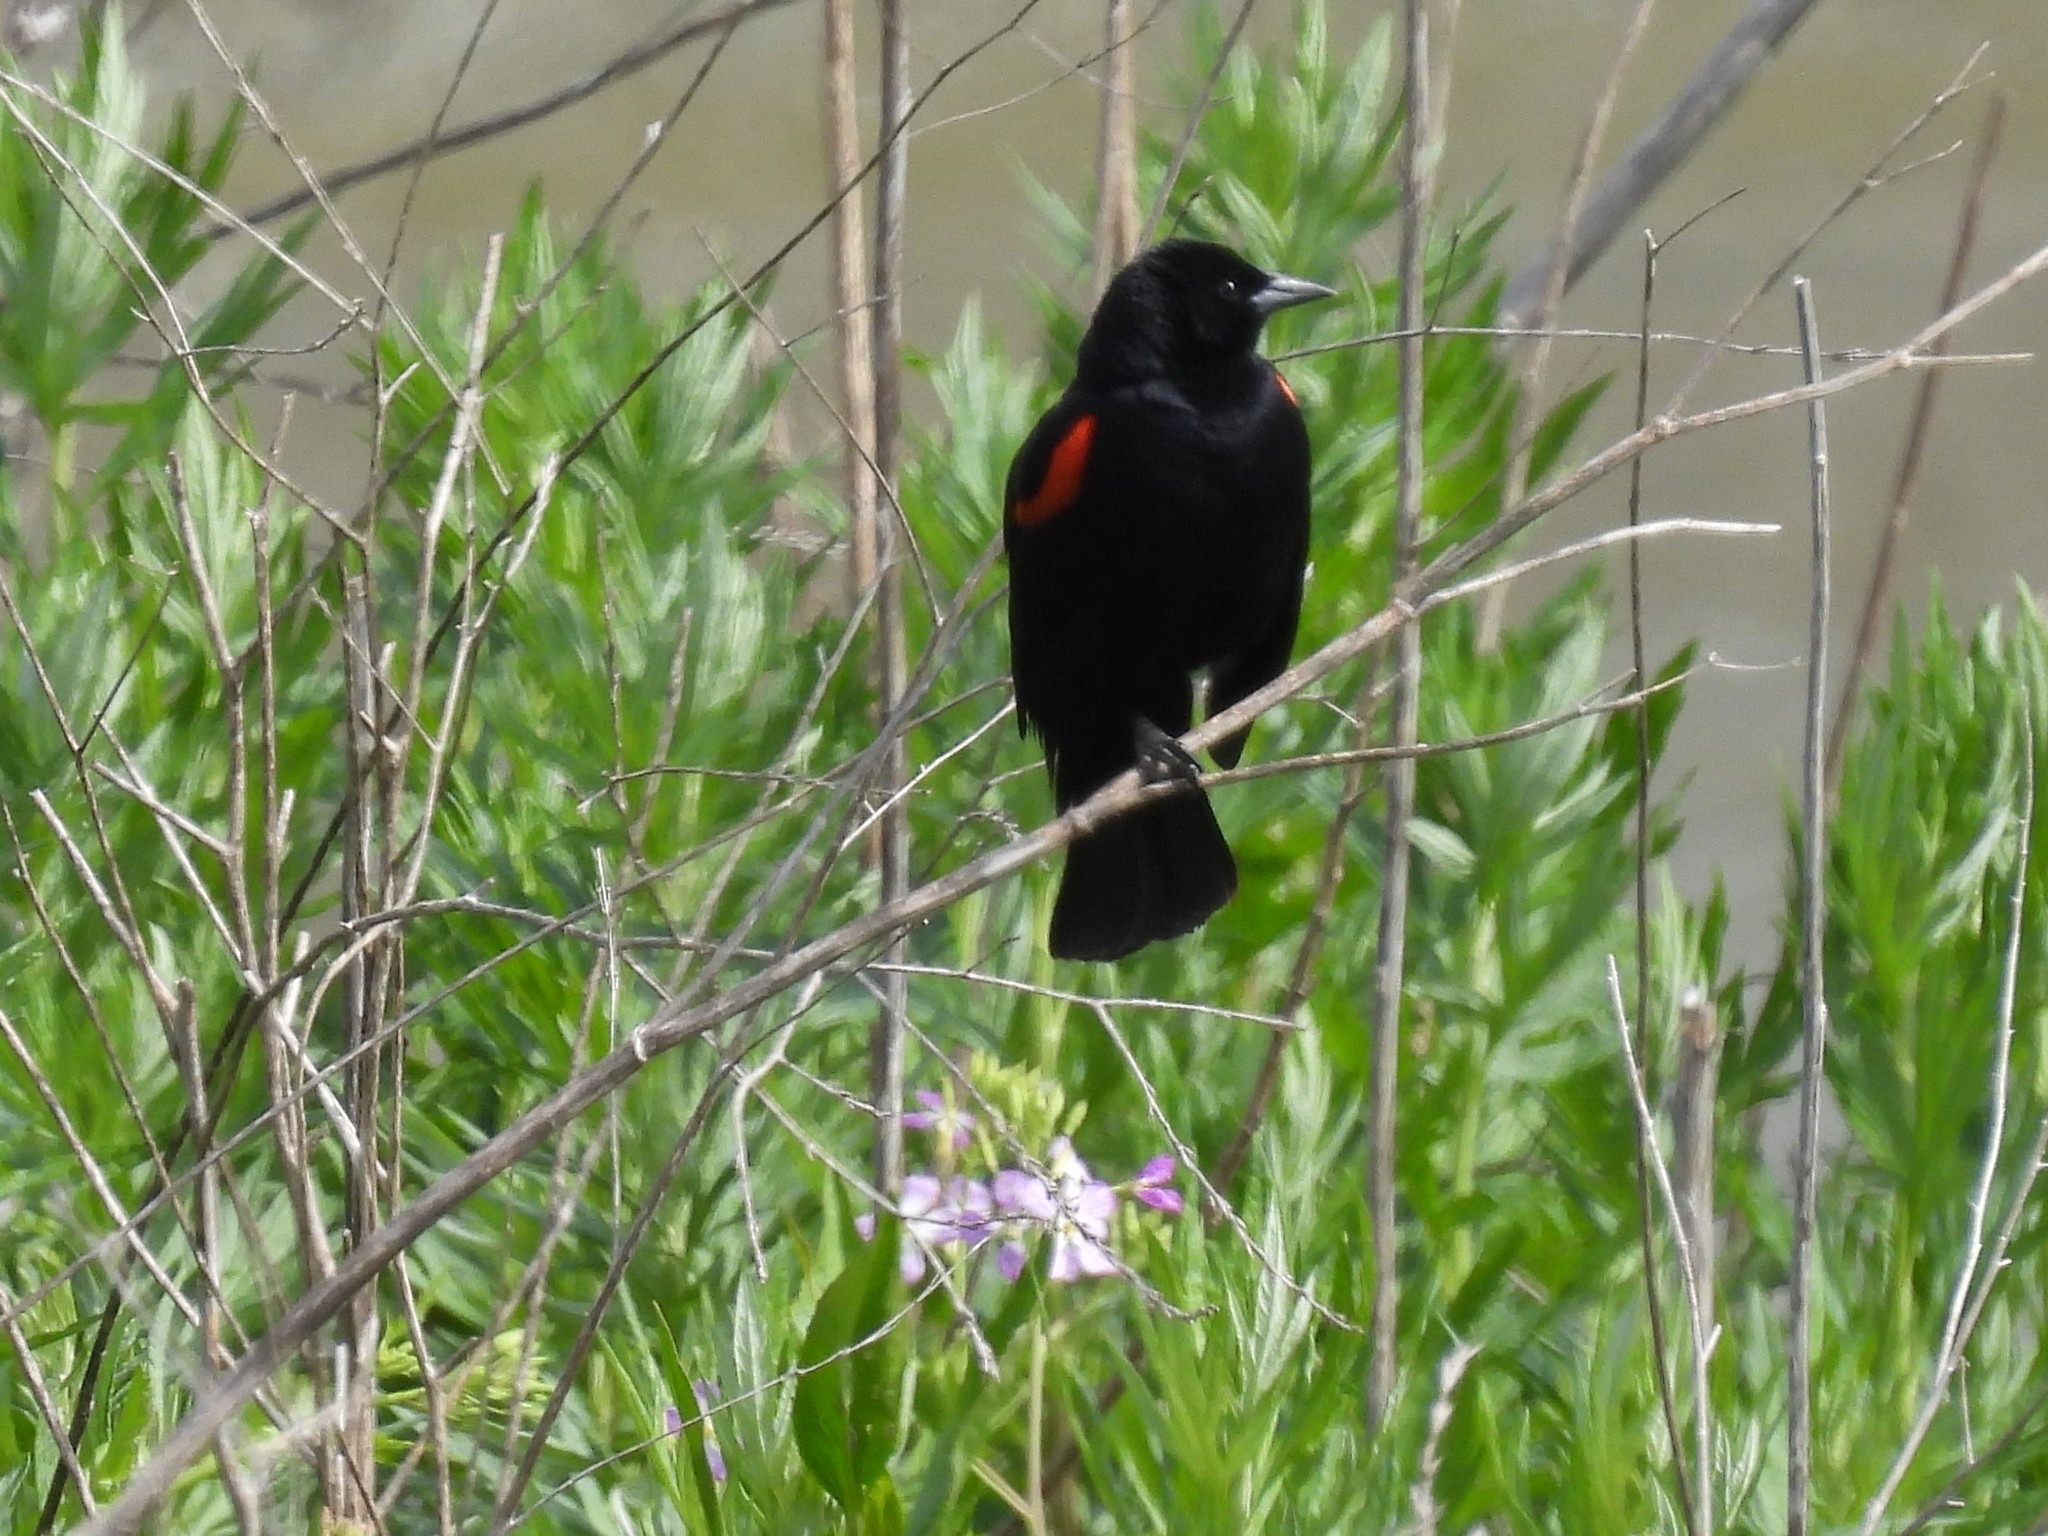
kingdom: Animalia
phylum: Chordata
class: Aves
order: Passeriformes
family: Icteridae
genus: Agelaius
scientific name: Agelaius phoeniceus
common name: Red-winged blackbird
